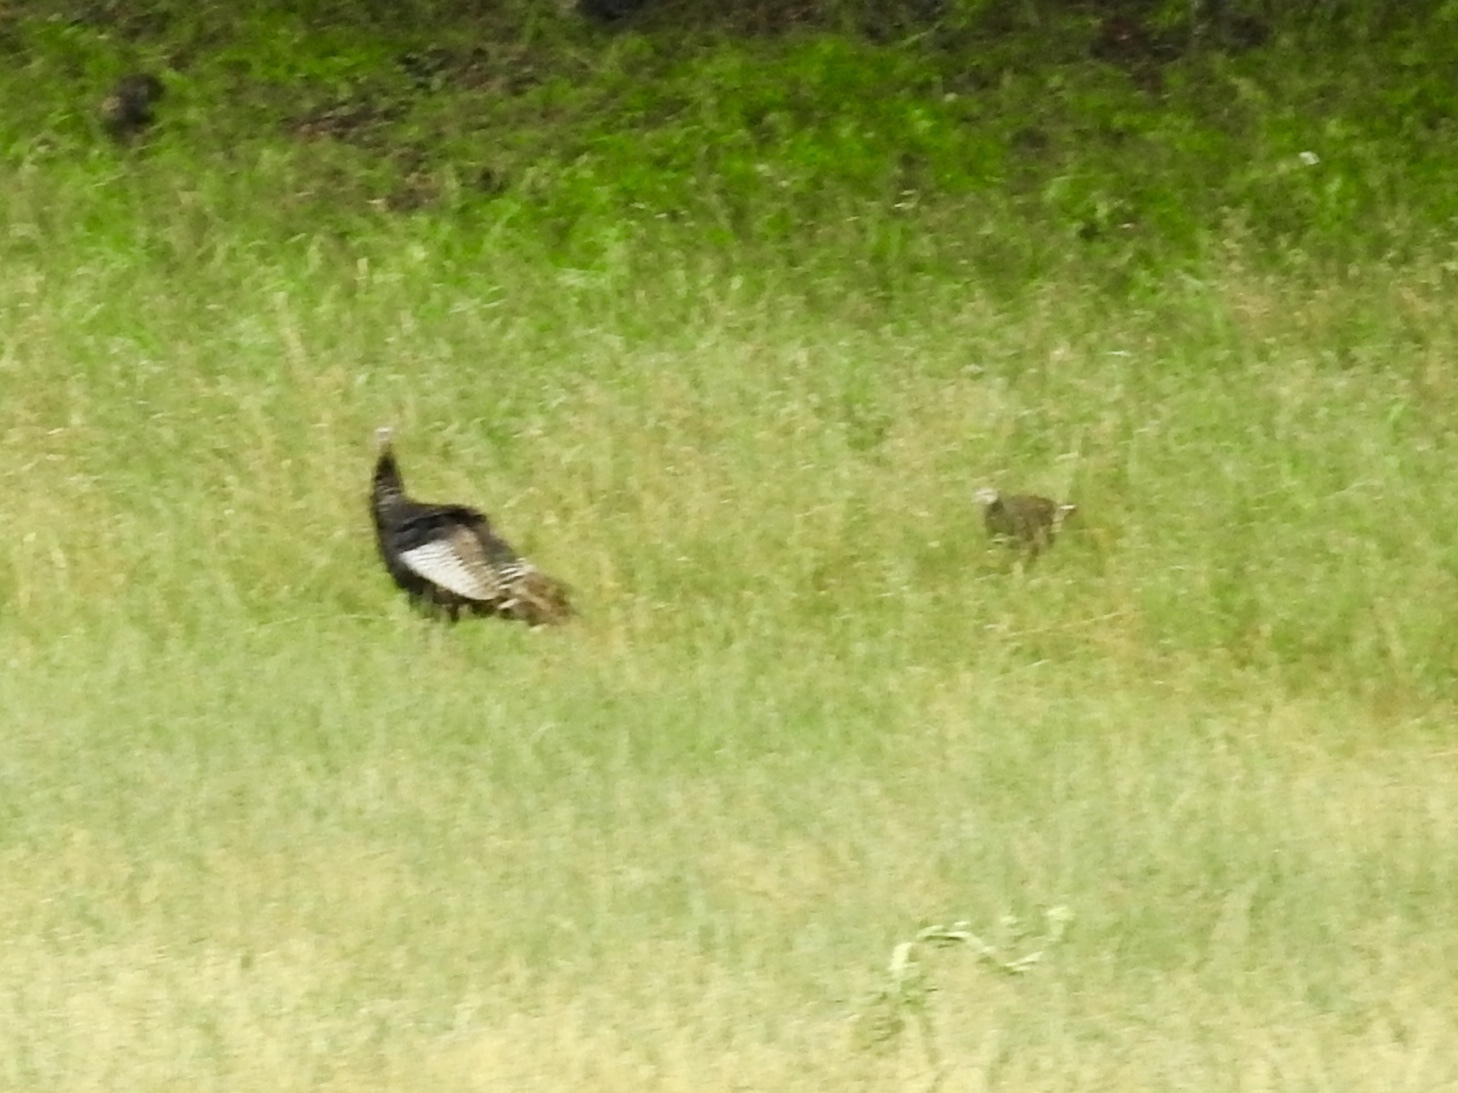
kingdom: Animalia
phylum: Chordata
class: Aves
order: Galliformes
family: Phasianidae
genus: Meleagris
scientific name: Meleagris gallopavo
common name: Wild turkey
